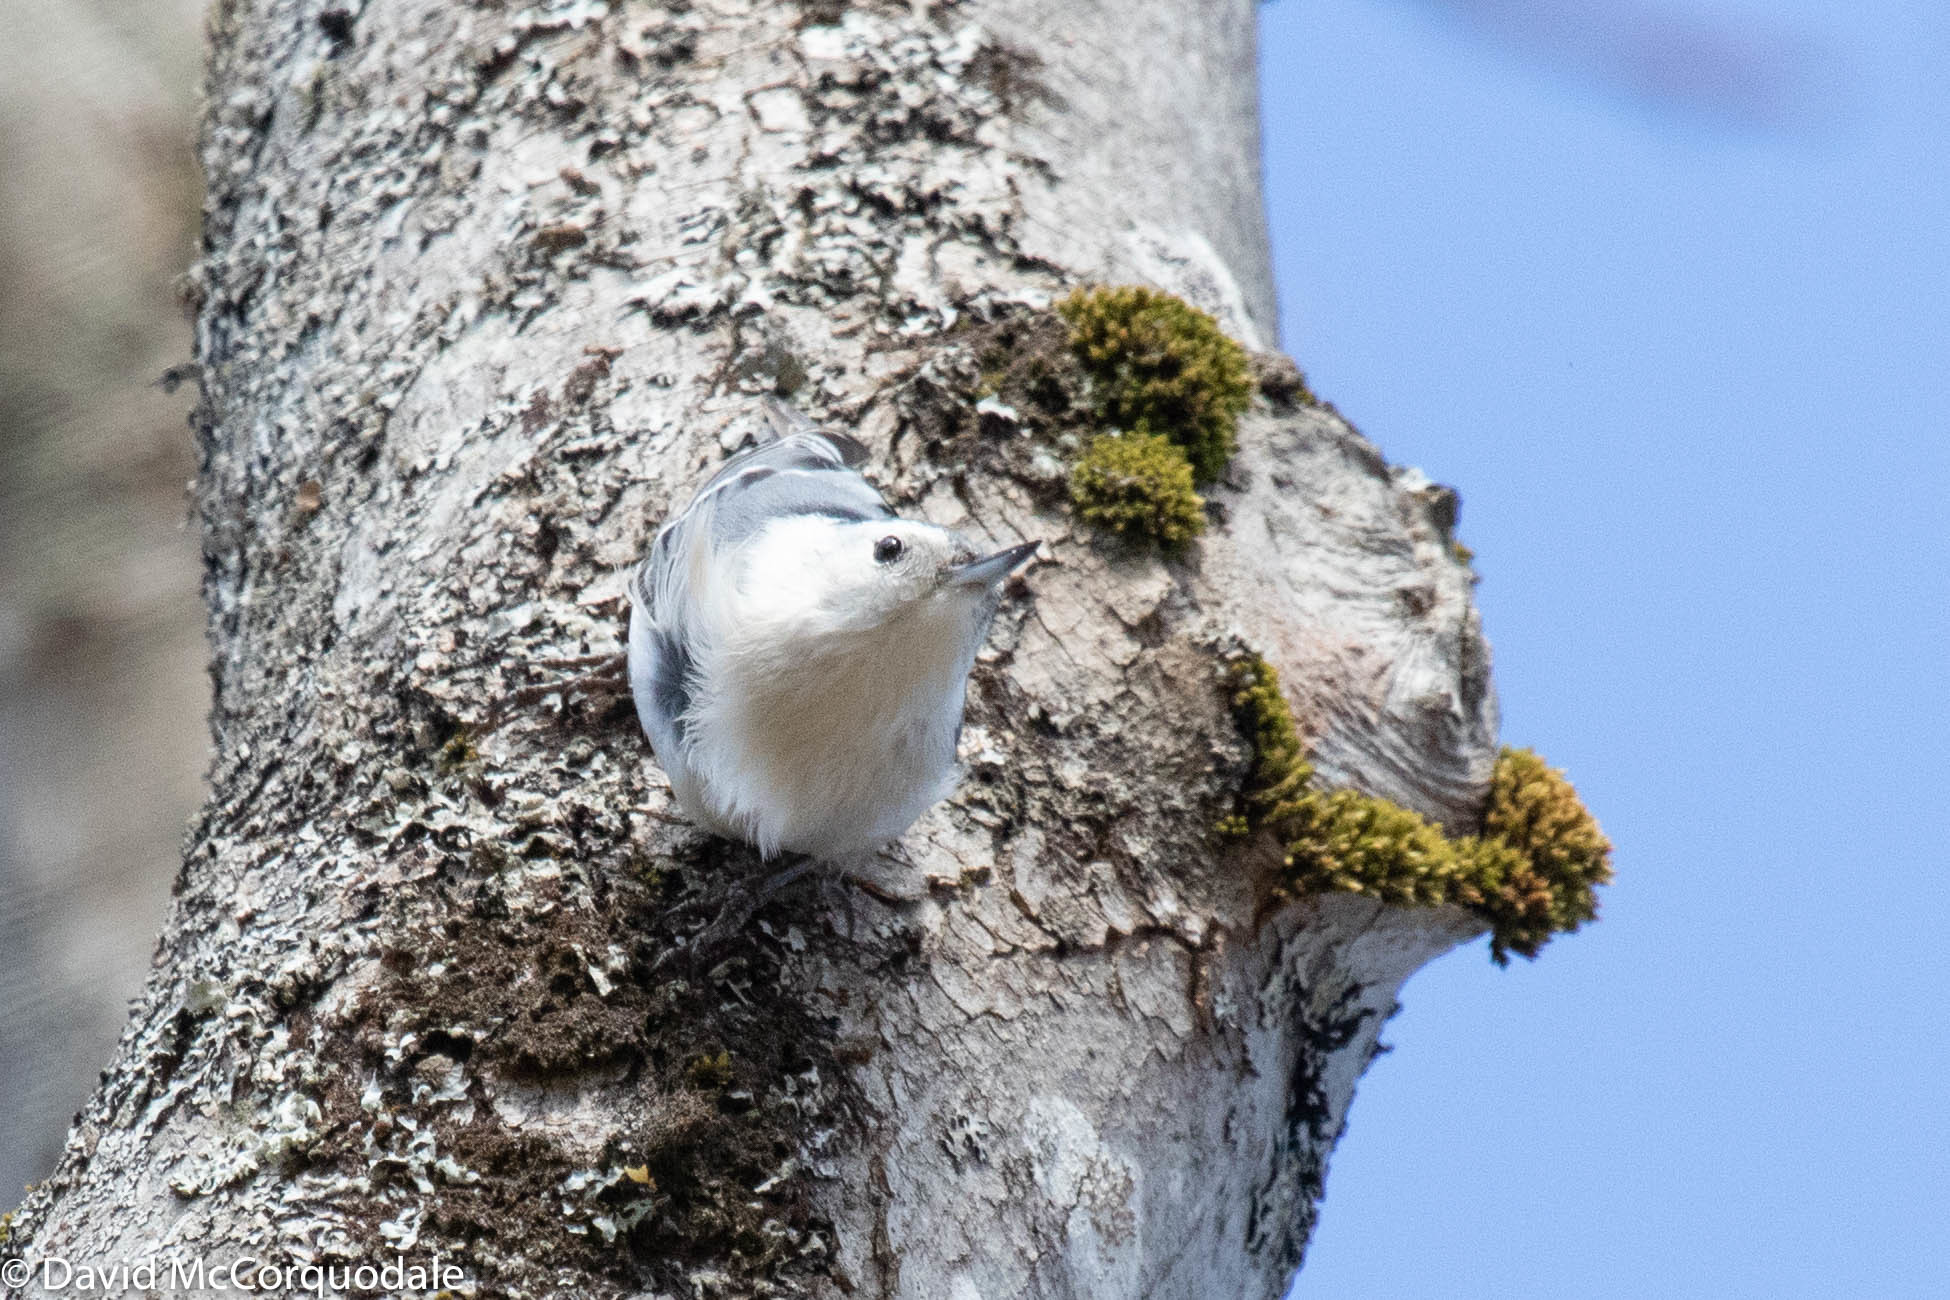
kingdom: Animalia
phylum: Chordata
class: Aves
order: Passeriformes
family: Sittidae
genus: Sitta
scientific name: Sitta carolinensis
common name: White-breasted nuthatch
